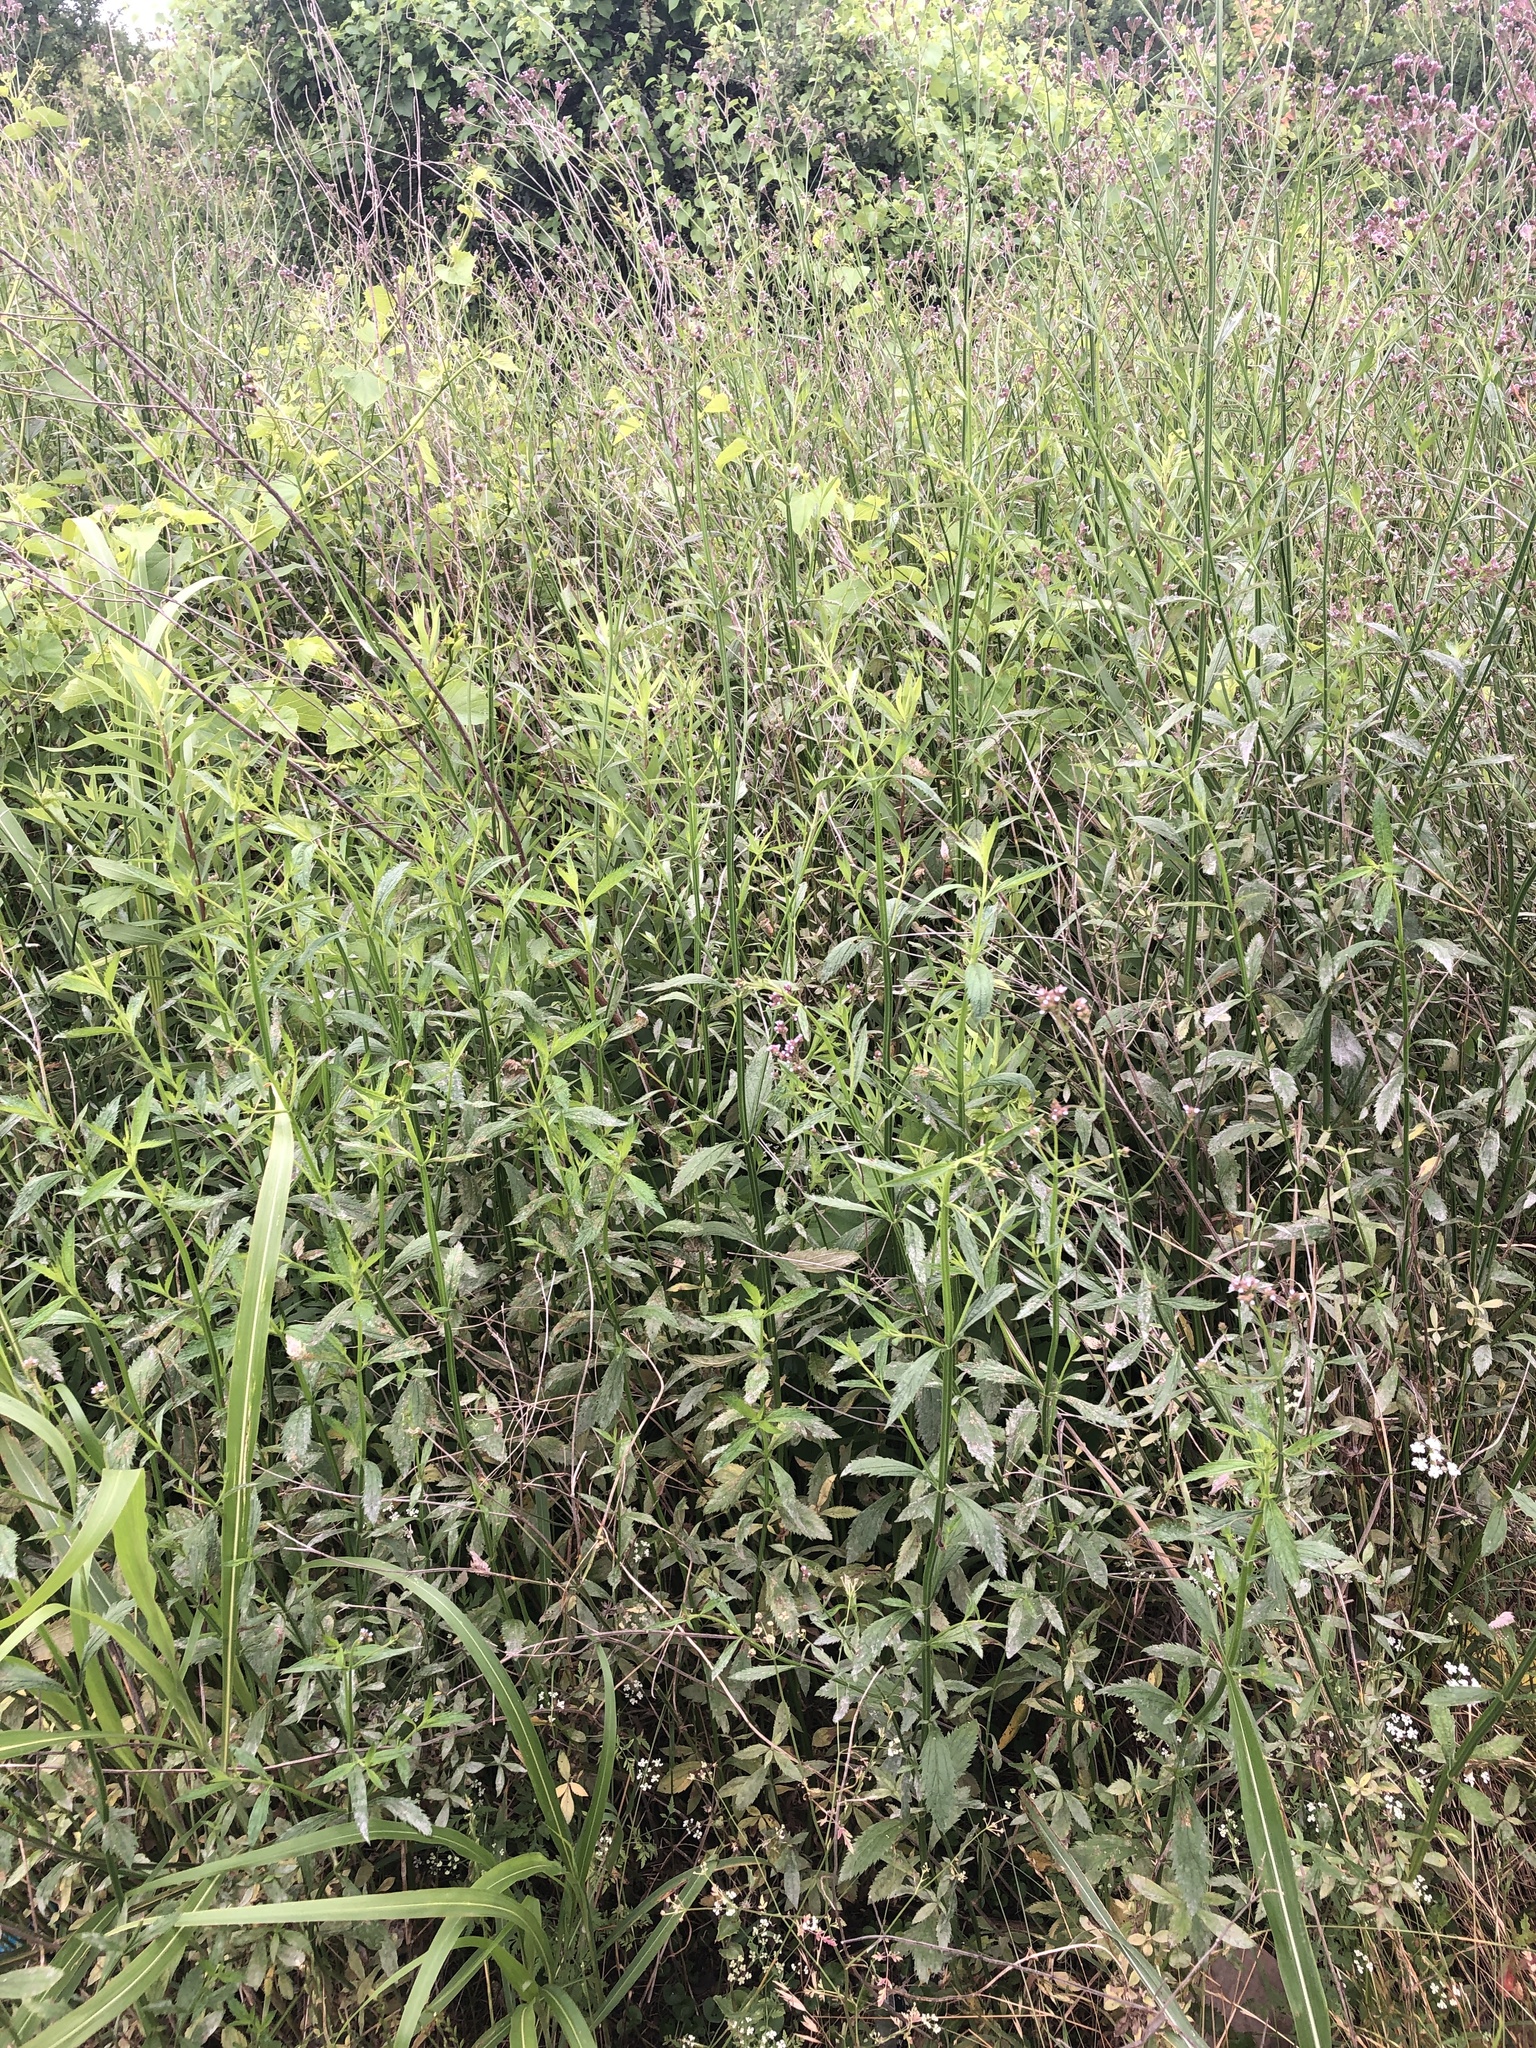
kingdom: Plantae
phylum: Tracheophyta
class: Magnoliopsida
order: Lamiales
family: Verbenaceae
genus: Verbena
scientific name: Verbena brasiliensis
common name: Brazilian vervain
